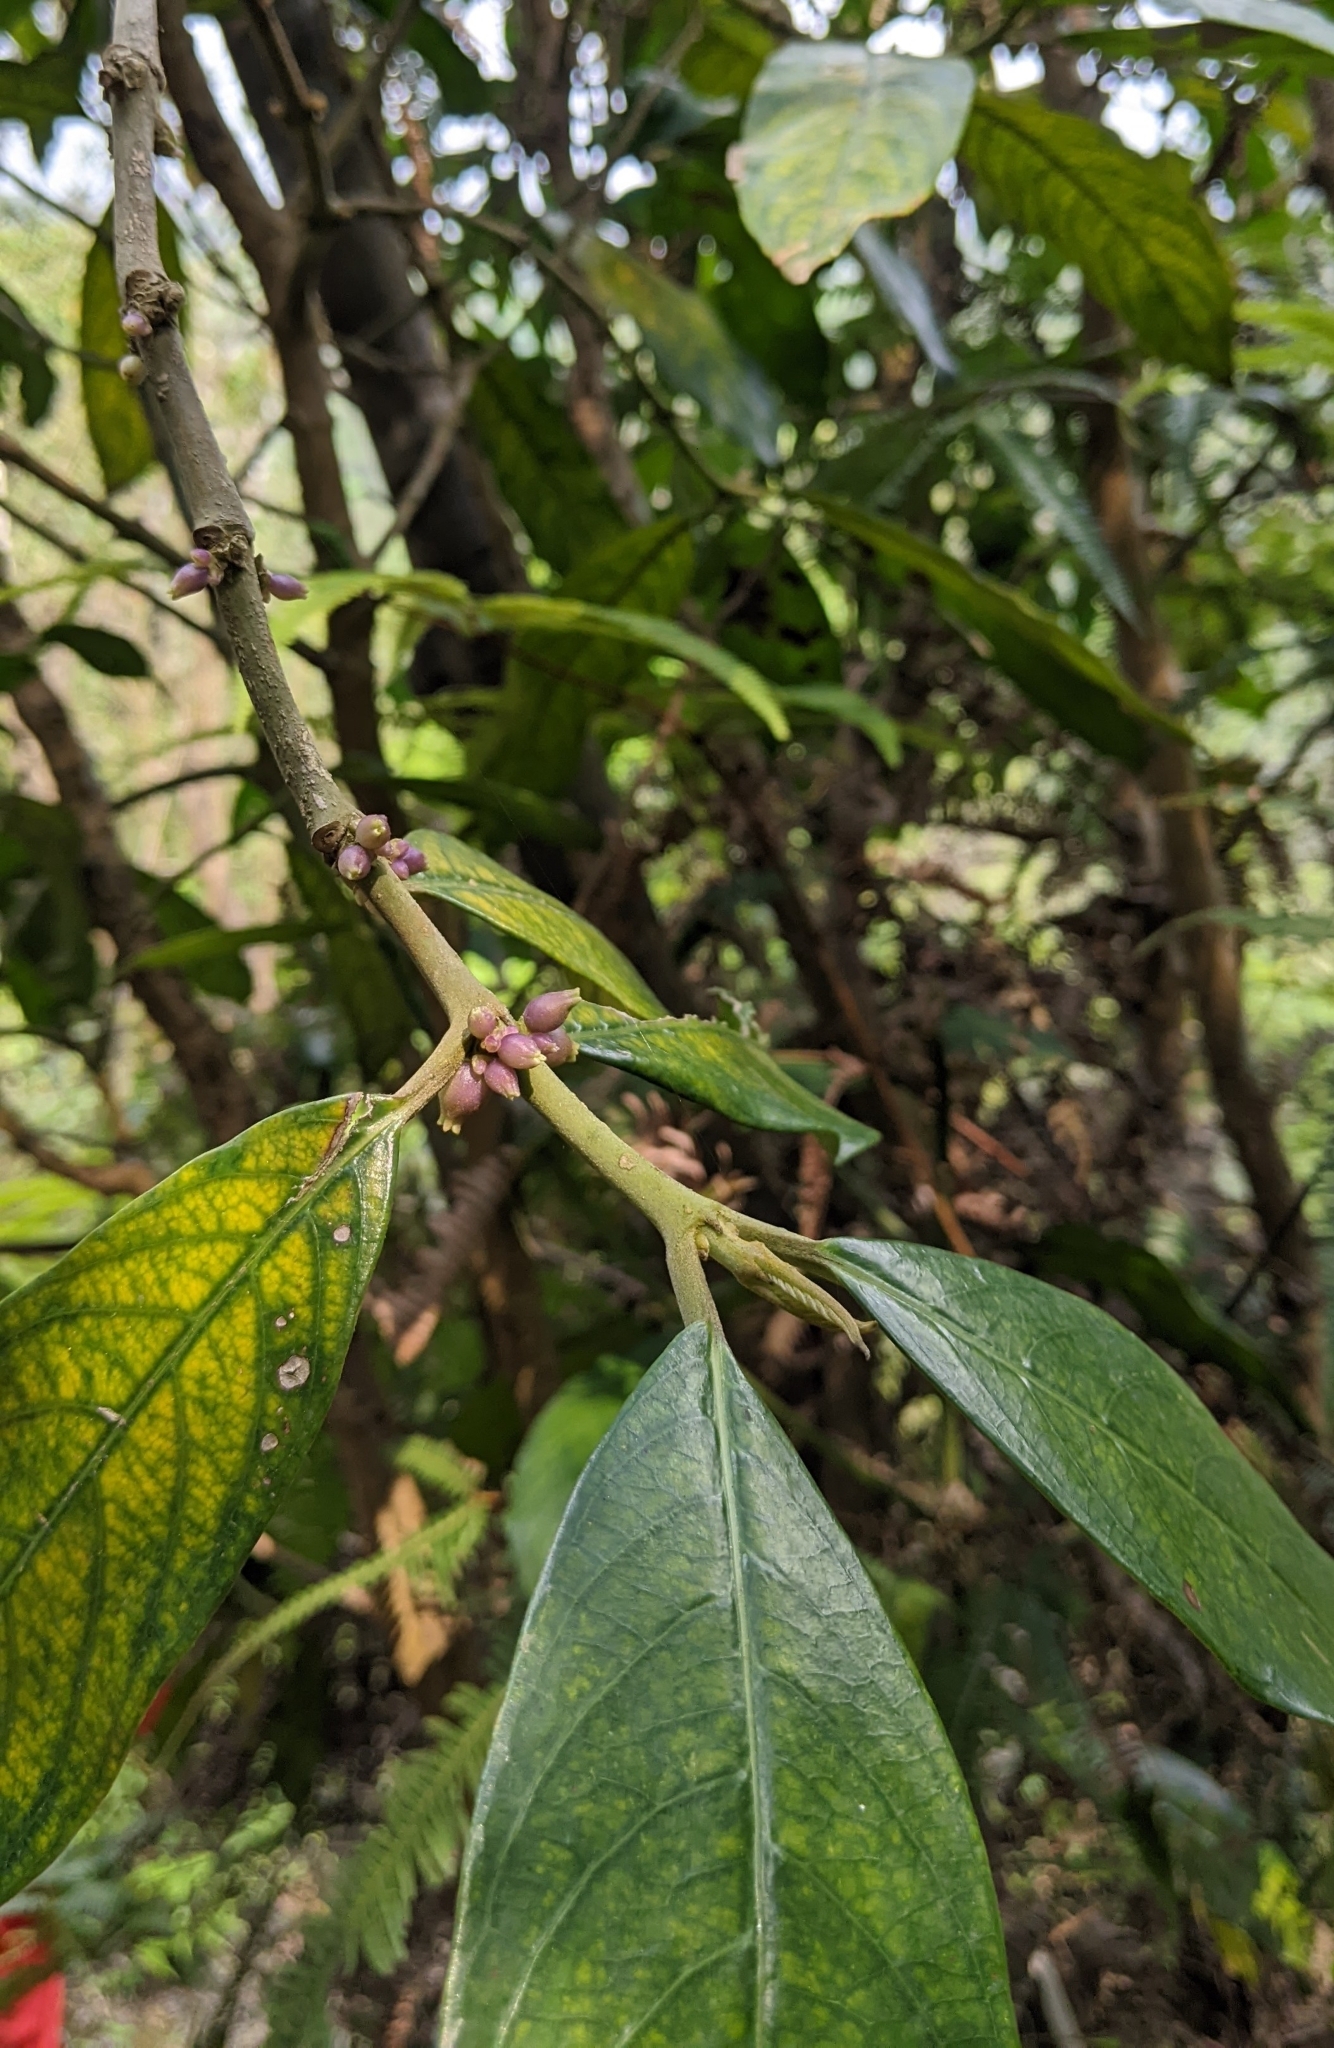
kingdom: Plantae
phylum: Tracheophyta
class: Magnoliopsida
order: Gentianales
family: Rubiaceae
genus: Lasianthus
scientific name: Lasianthus chinensis
